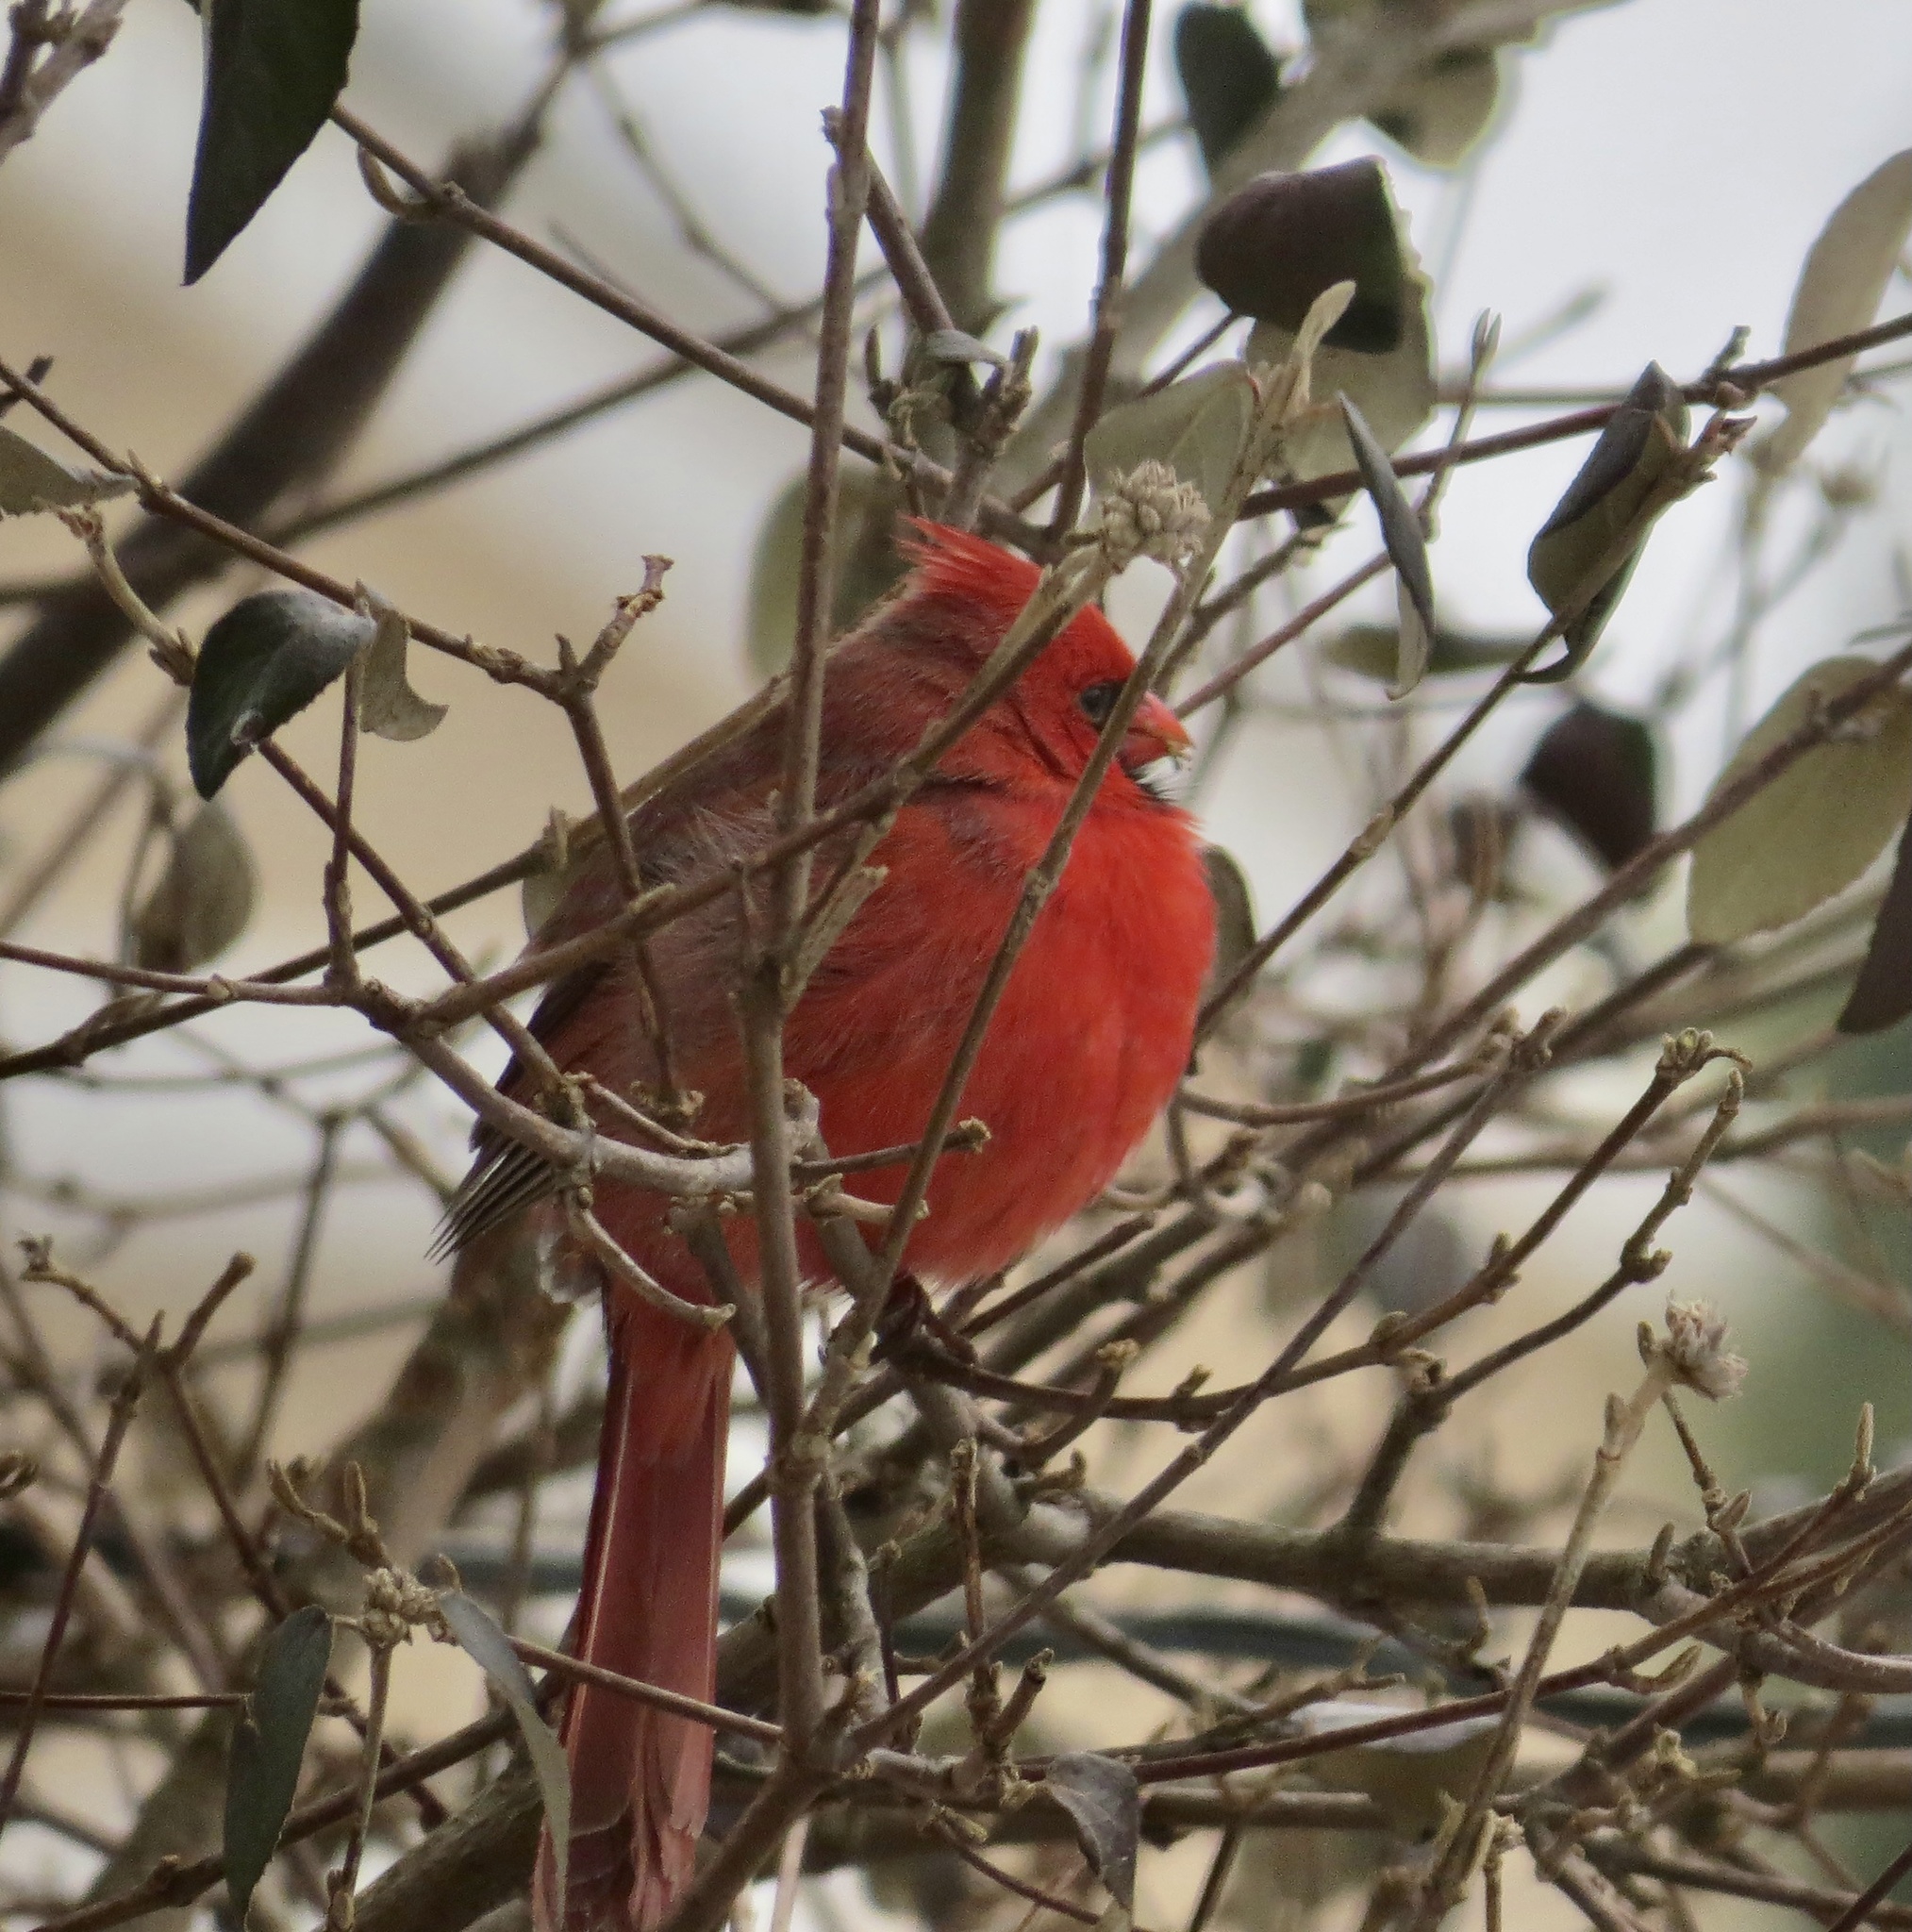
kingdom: Animalia
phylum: Chordata
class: Aves
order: Passeriformes
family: Cardinalidae
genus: Cardinalis
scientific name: Cardinalis cardinalis
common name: Northern cardinal
